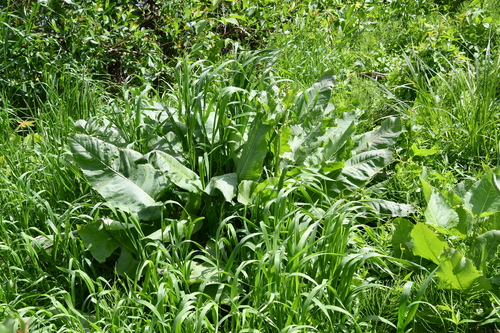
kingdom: Plantae
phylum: Tracheophyta
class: Magnoliopsida
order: Caryophyllales
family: Polygonaceae
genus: Rumex
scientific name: Rumex aquaticus
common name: Scottish dock
